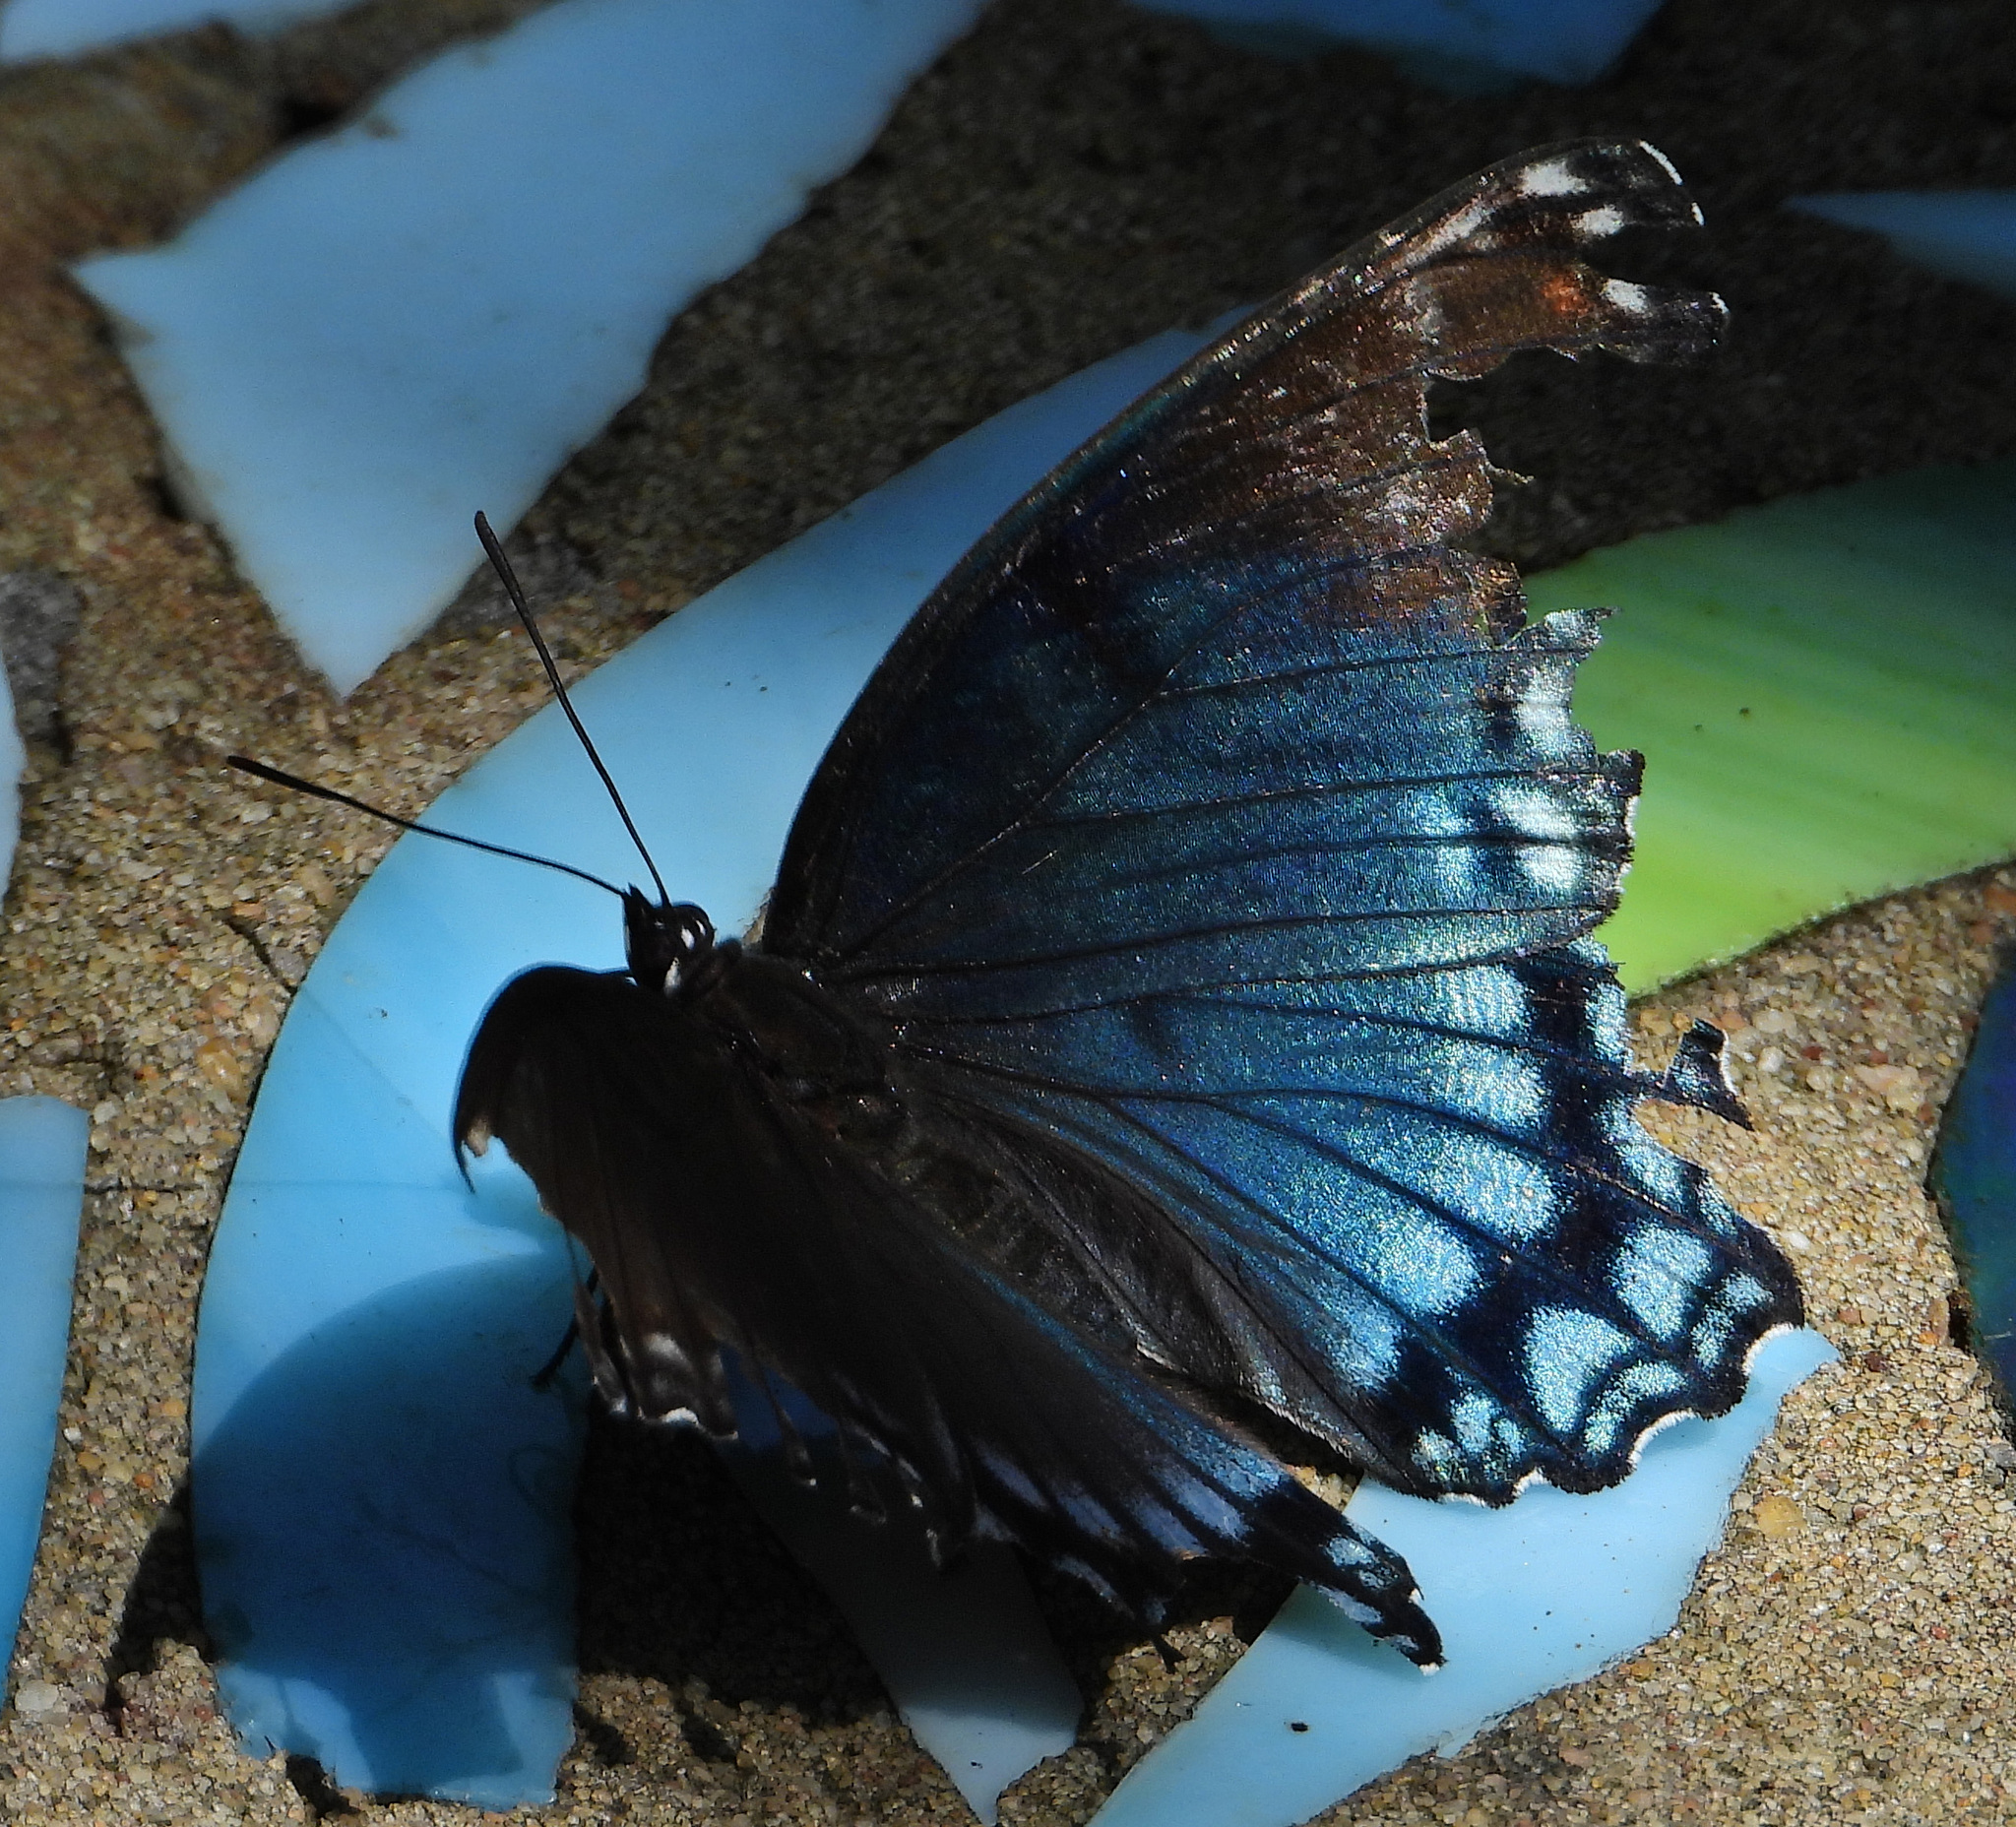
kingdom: Animalia
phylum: Arthropoda
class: Insecta
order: Lepidoptera
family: Nymphalidae
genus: Limenitis
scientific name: Limenitis astyanax
